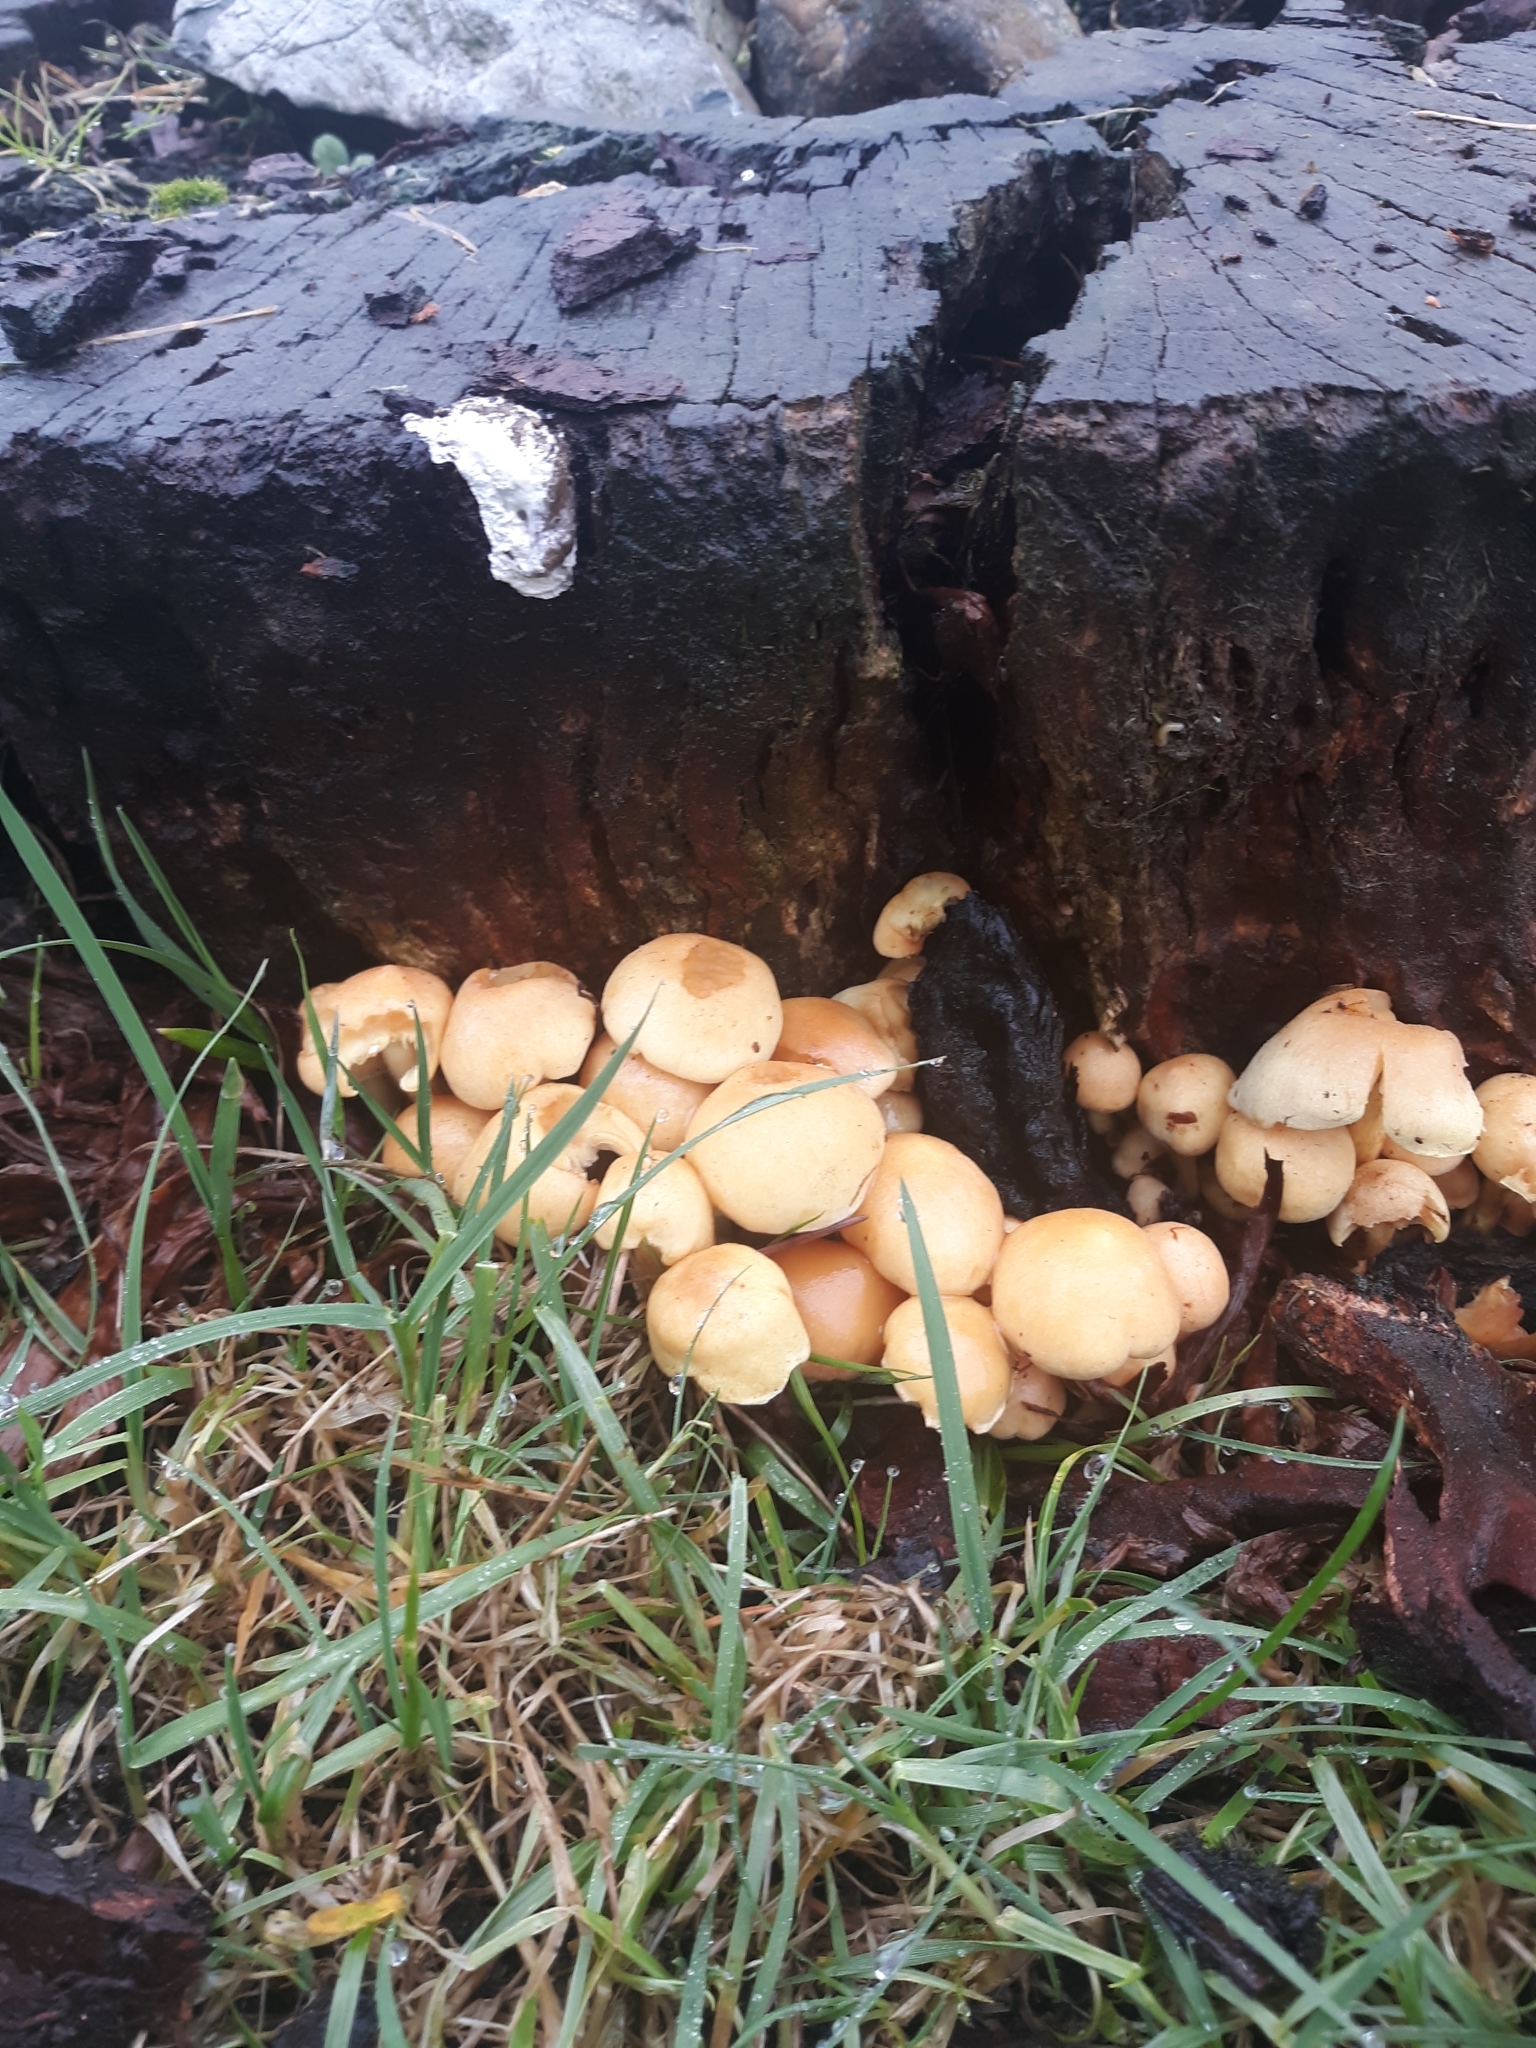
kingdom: Fungi
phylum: Basidiomycota
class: Agaricomycetes
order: Agaricales
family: Strophariaceae
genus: Hypholoma
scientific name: Hypholoma fasciculare
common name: Sulphur tuft
